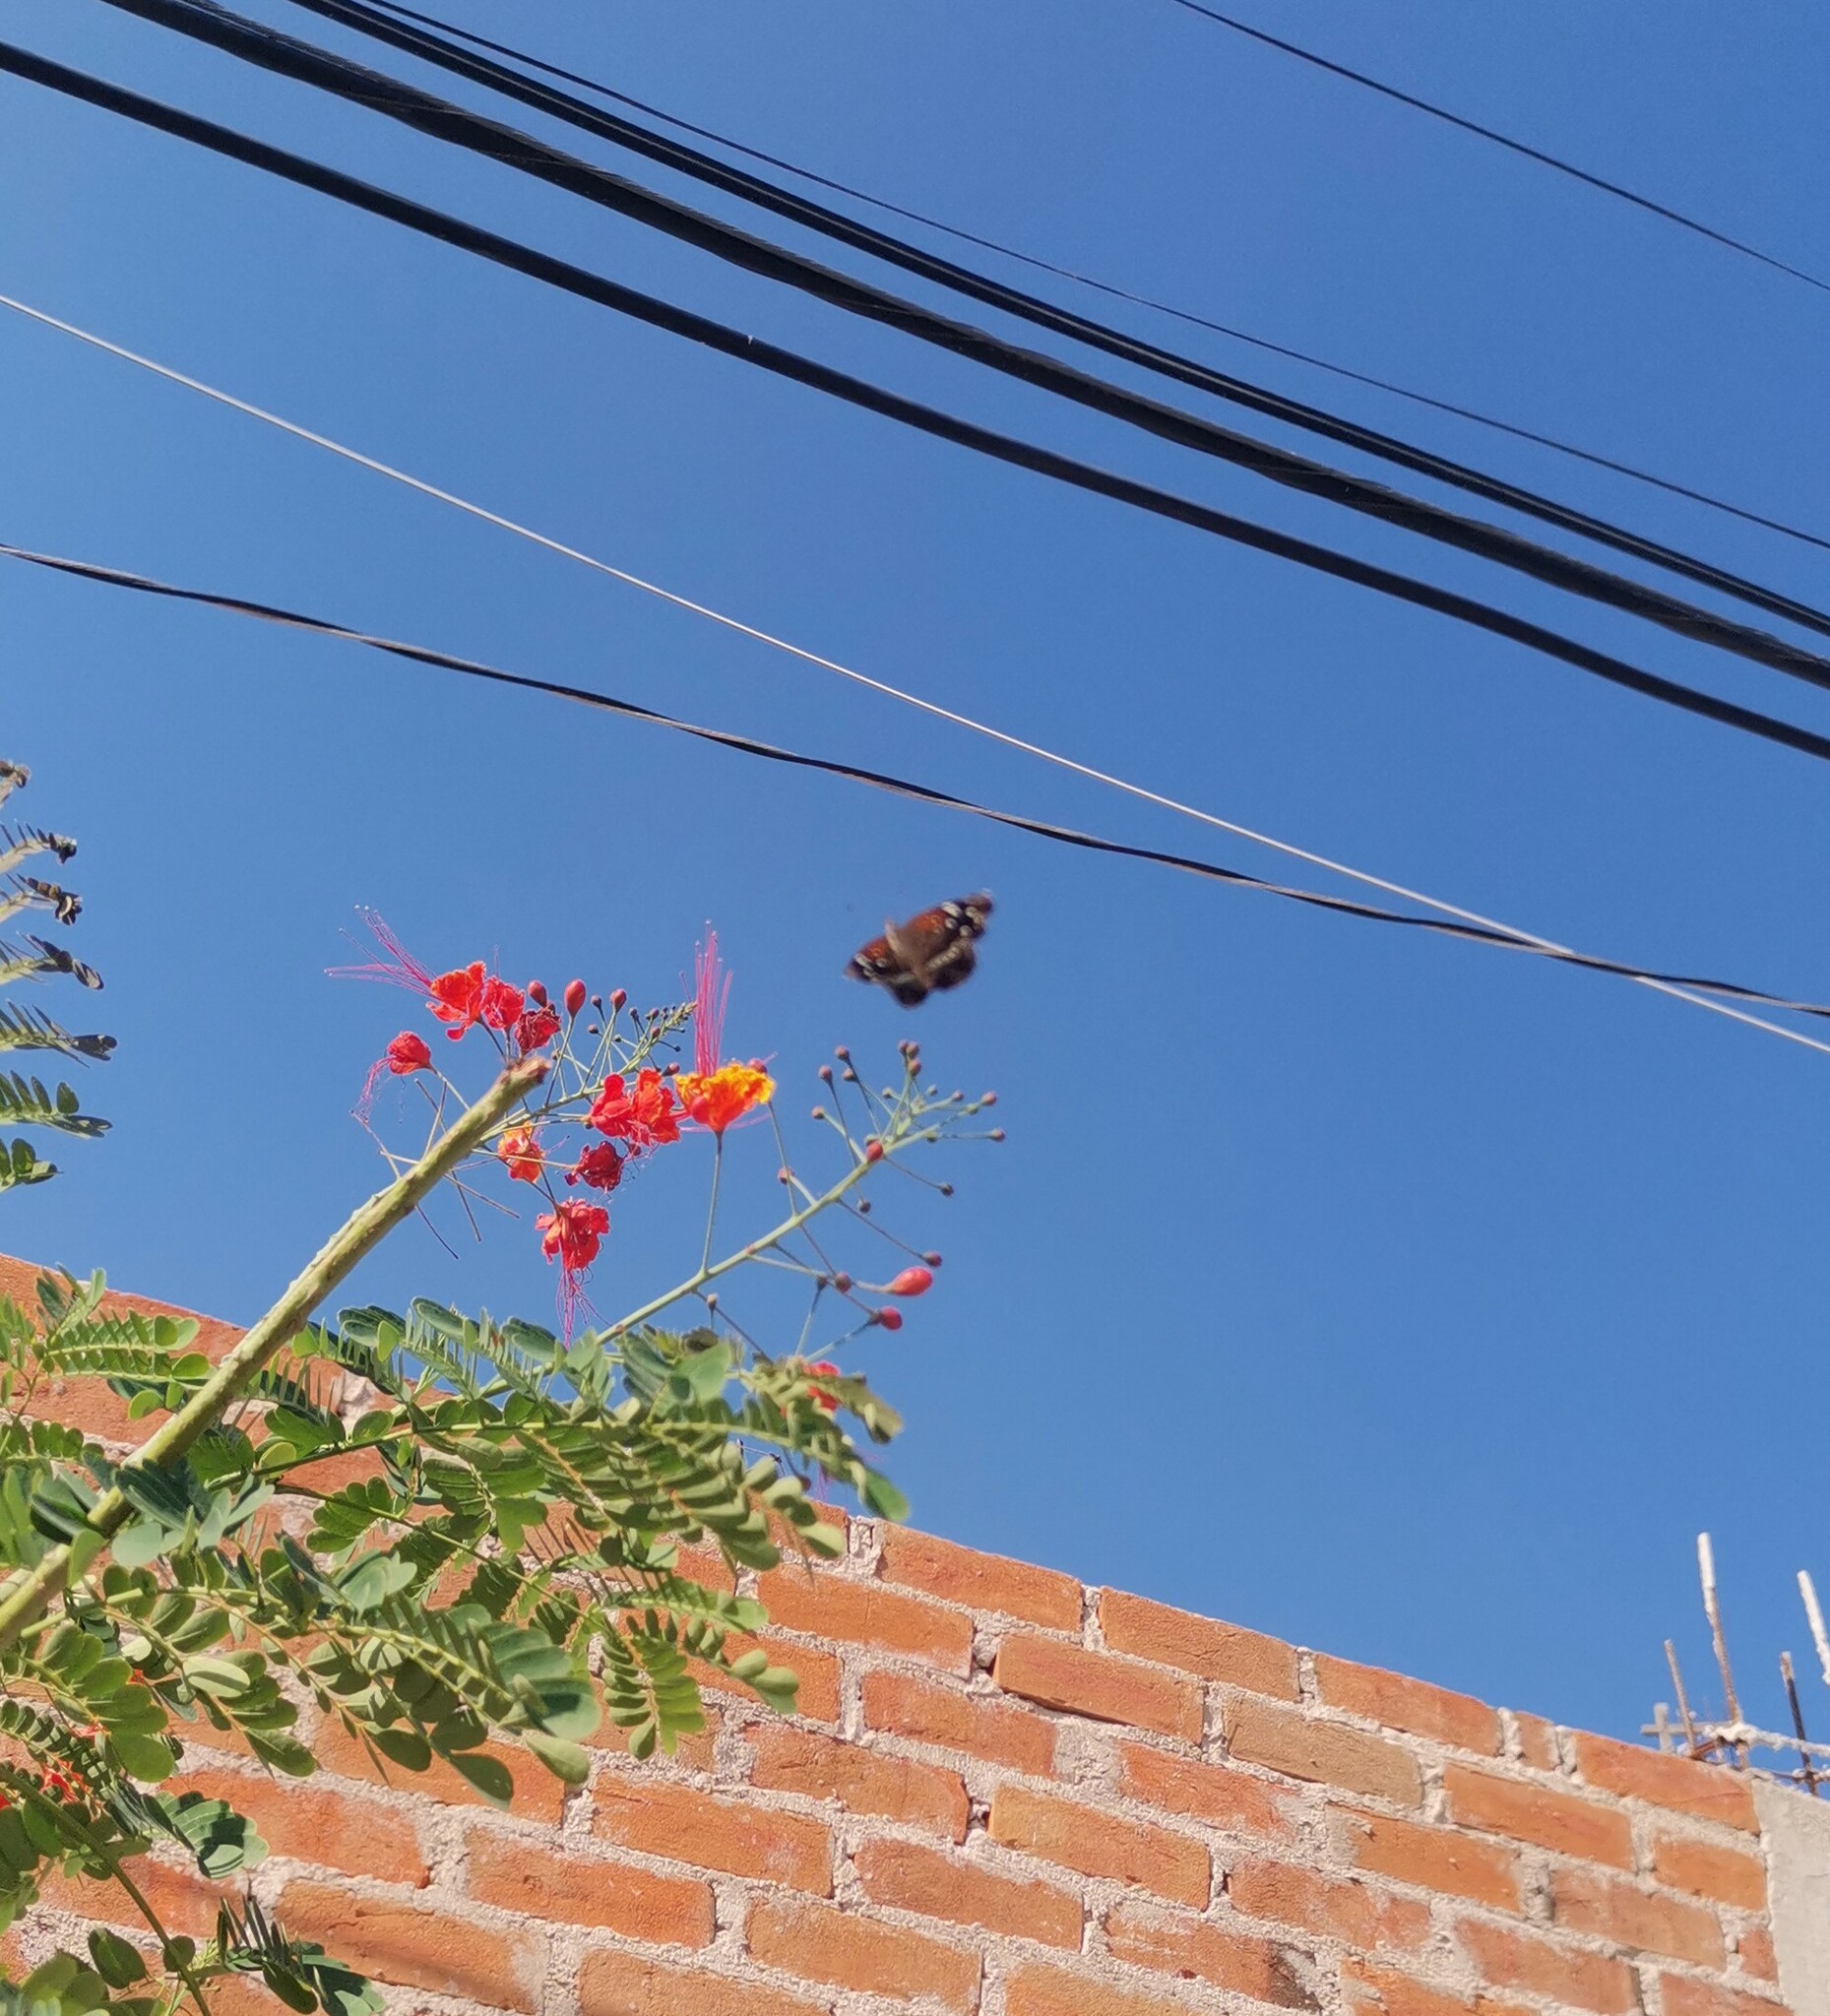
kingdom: Animalia
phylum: Arthropoda
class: Insecta
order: Lepidoptera
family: Nymphalidae
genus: Anthanassa
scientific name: Anthanassa texana
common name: Texan crescent
